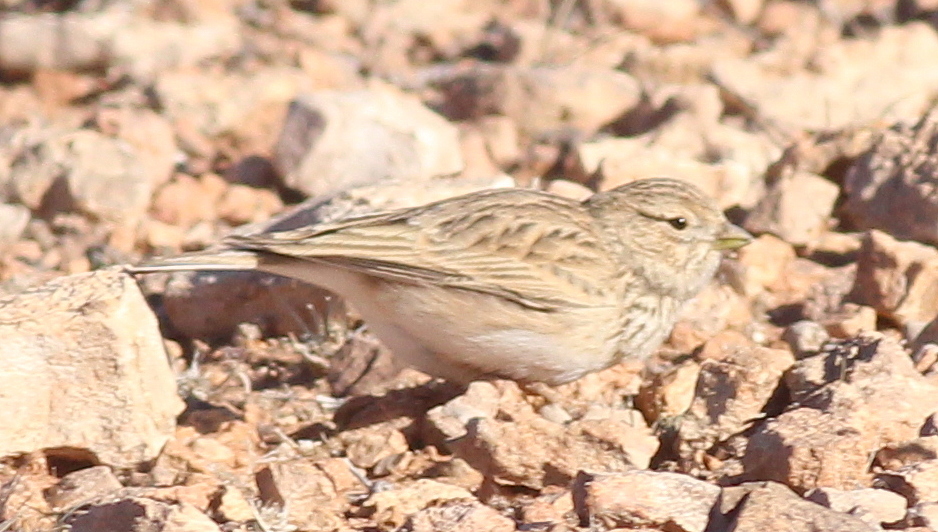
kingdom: Animalia
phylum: Chordata
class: Aves
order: Passeriformes
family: Alaudidae
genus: Calandrella
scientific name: Calandrella rufescens
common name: Lesser short-toed lark
